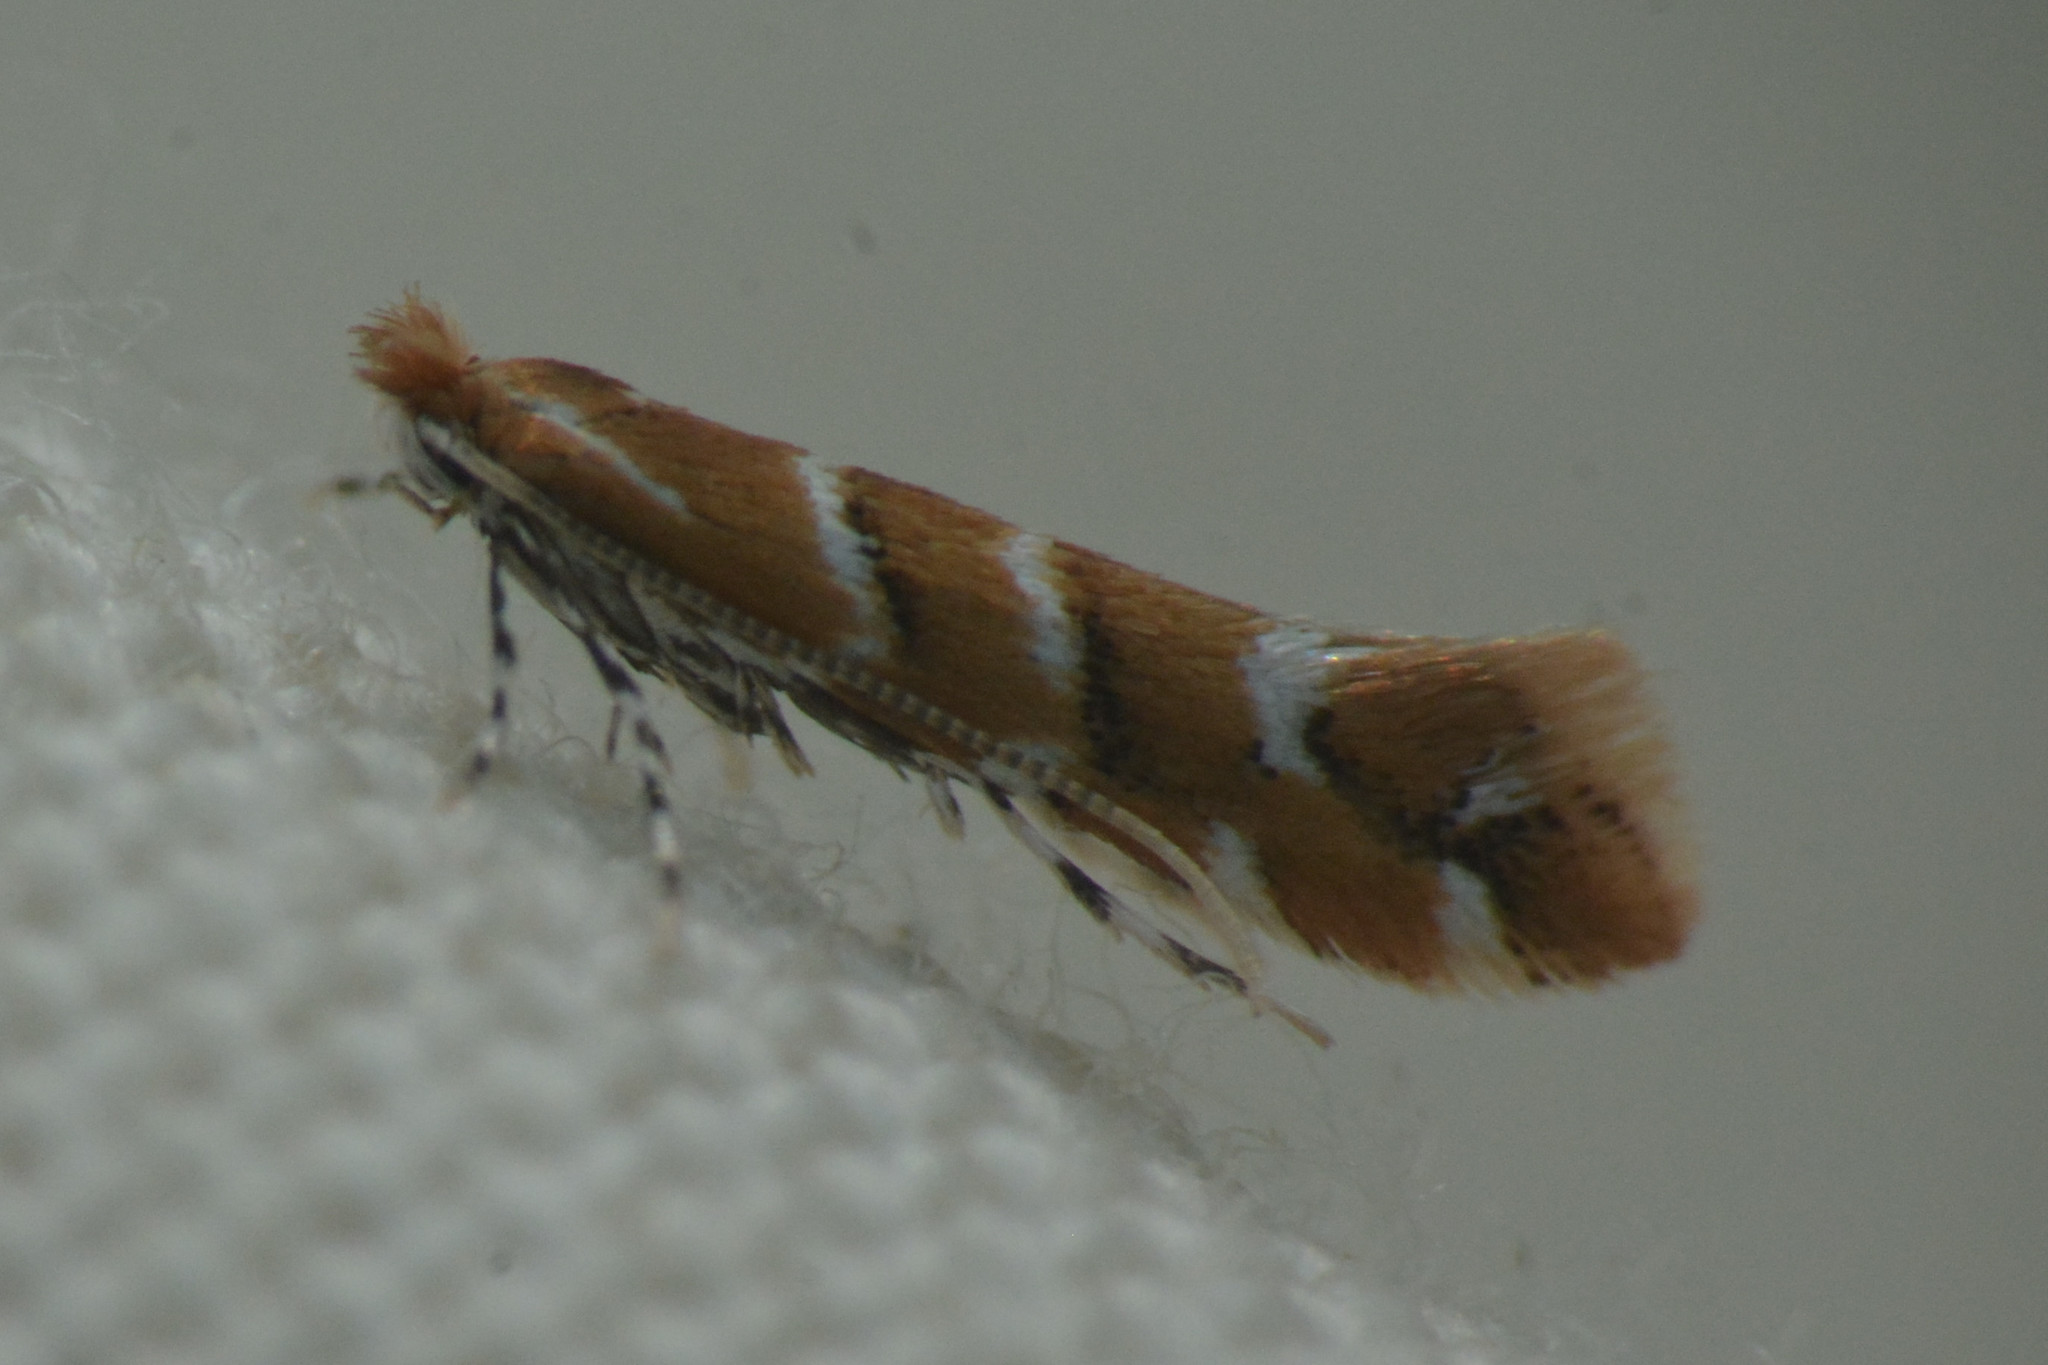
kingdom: Animalia
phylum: Arthropoda
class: Insecta
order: Lepidoptera
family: Gracillariidae
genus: Cameraria
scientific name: Cameraria ohridella
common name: Horse-chestnut leaf-miner
